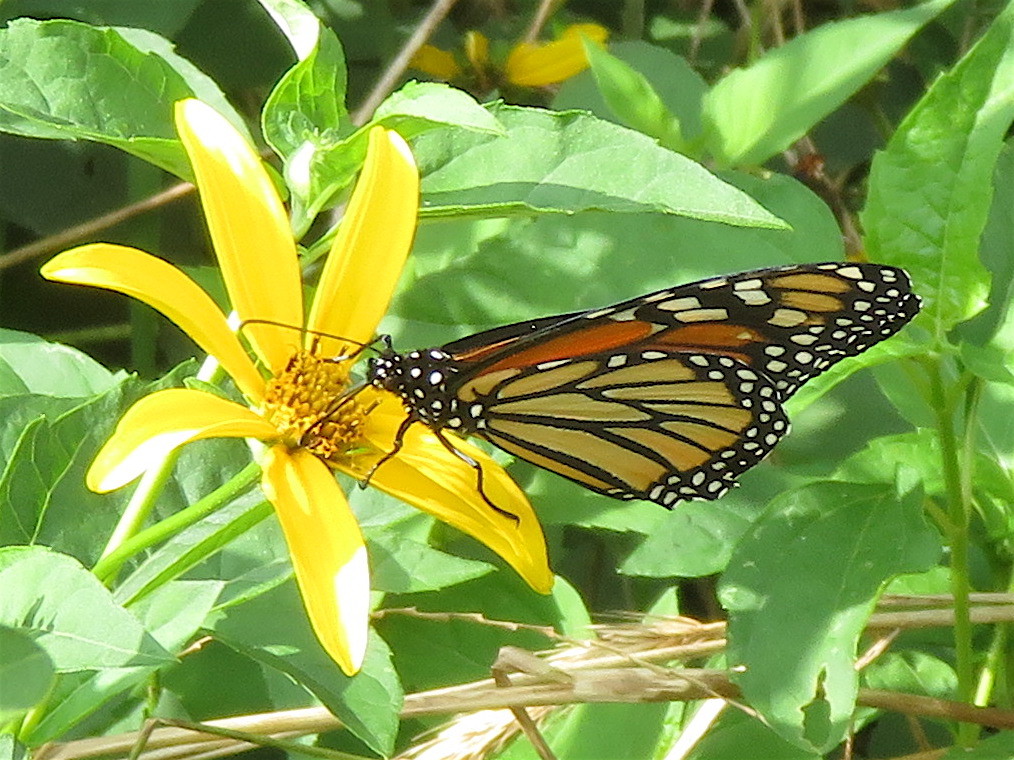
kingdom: Animalia
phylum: Arthropoda
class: Insecta
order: Lepidoptera
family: Nymphalidae
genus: Danaus
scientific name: Danaus plexippus
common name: Monarch
